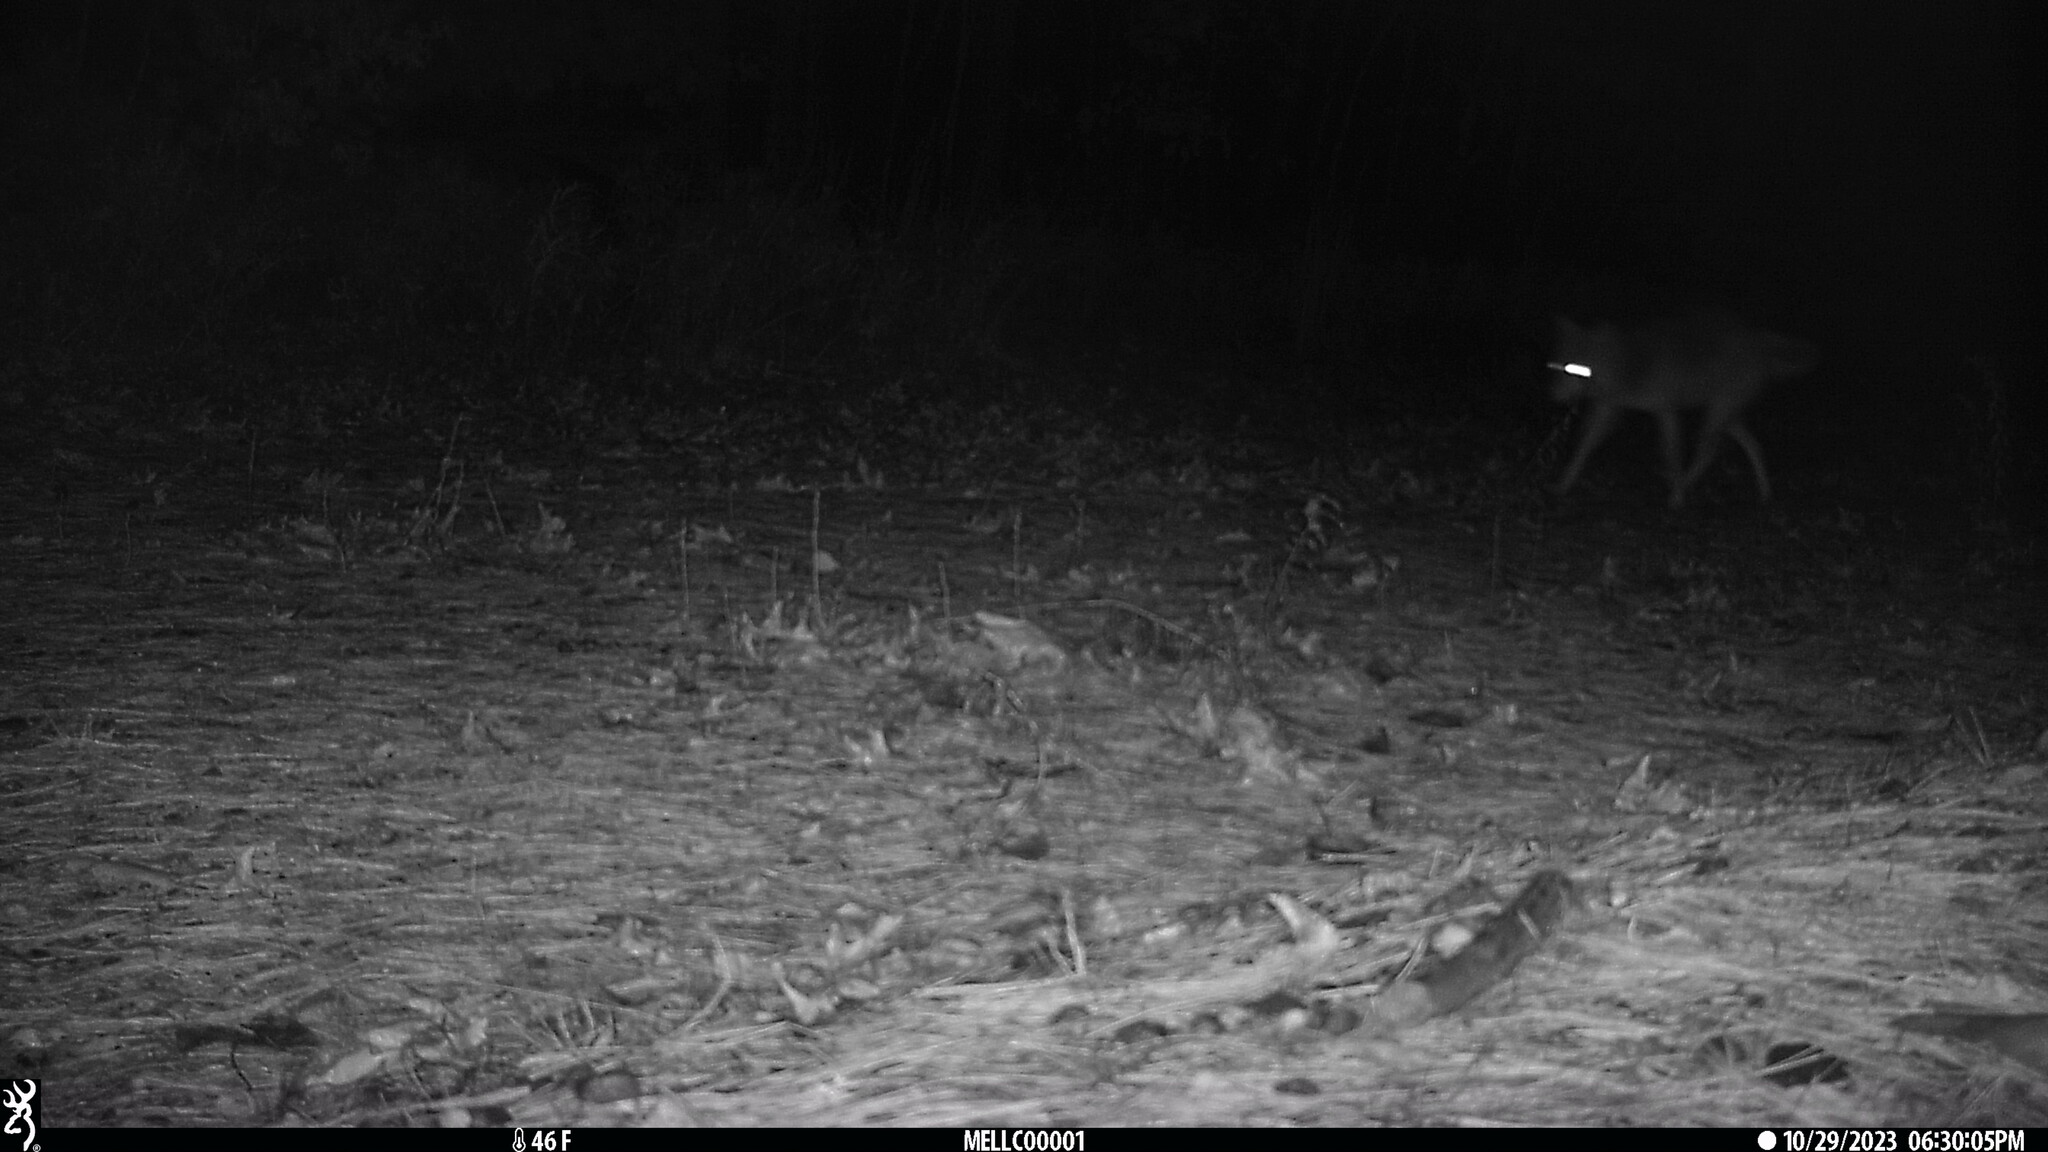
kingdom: Animalia
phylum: Chordata
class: Mammalia
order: Carnivora
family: Canidae
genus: Canis
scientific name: Canis latrans
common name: Coyote
